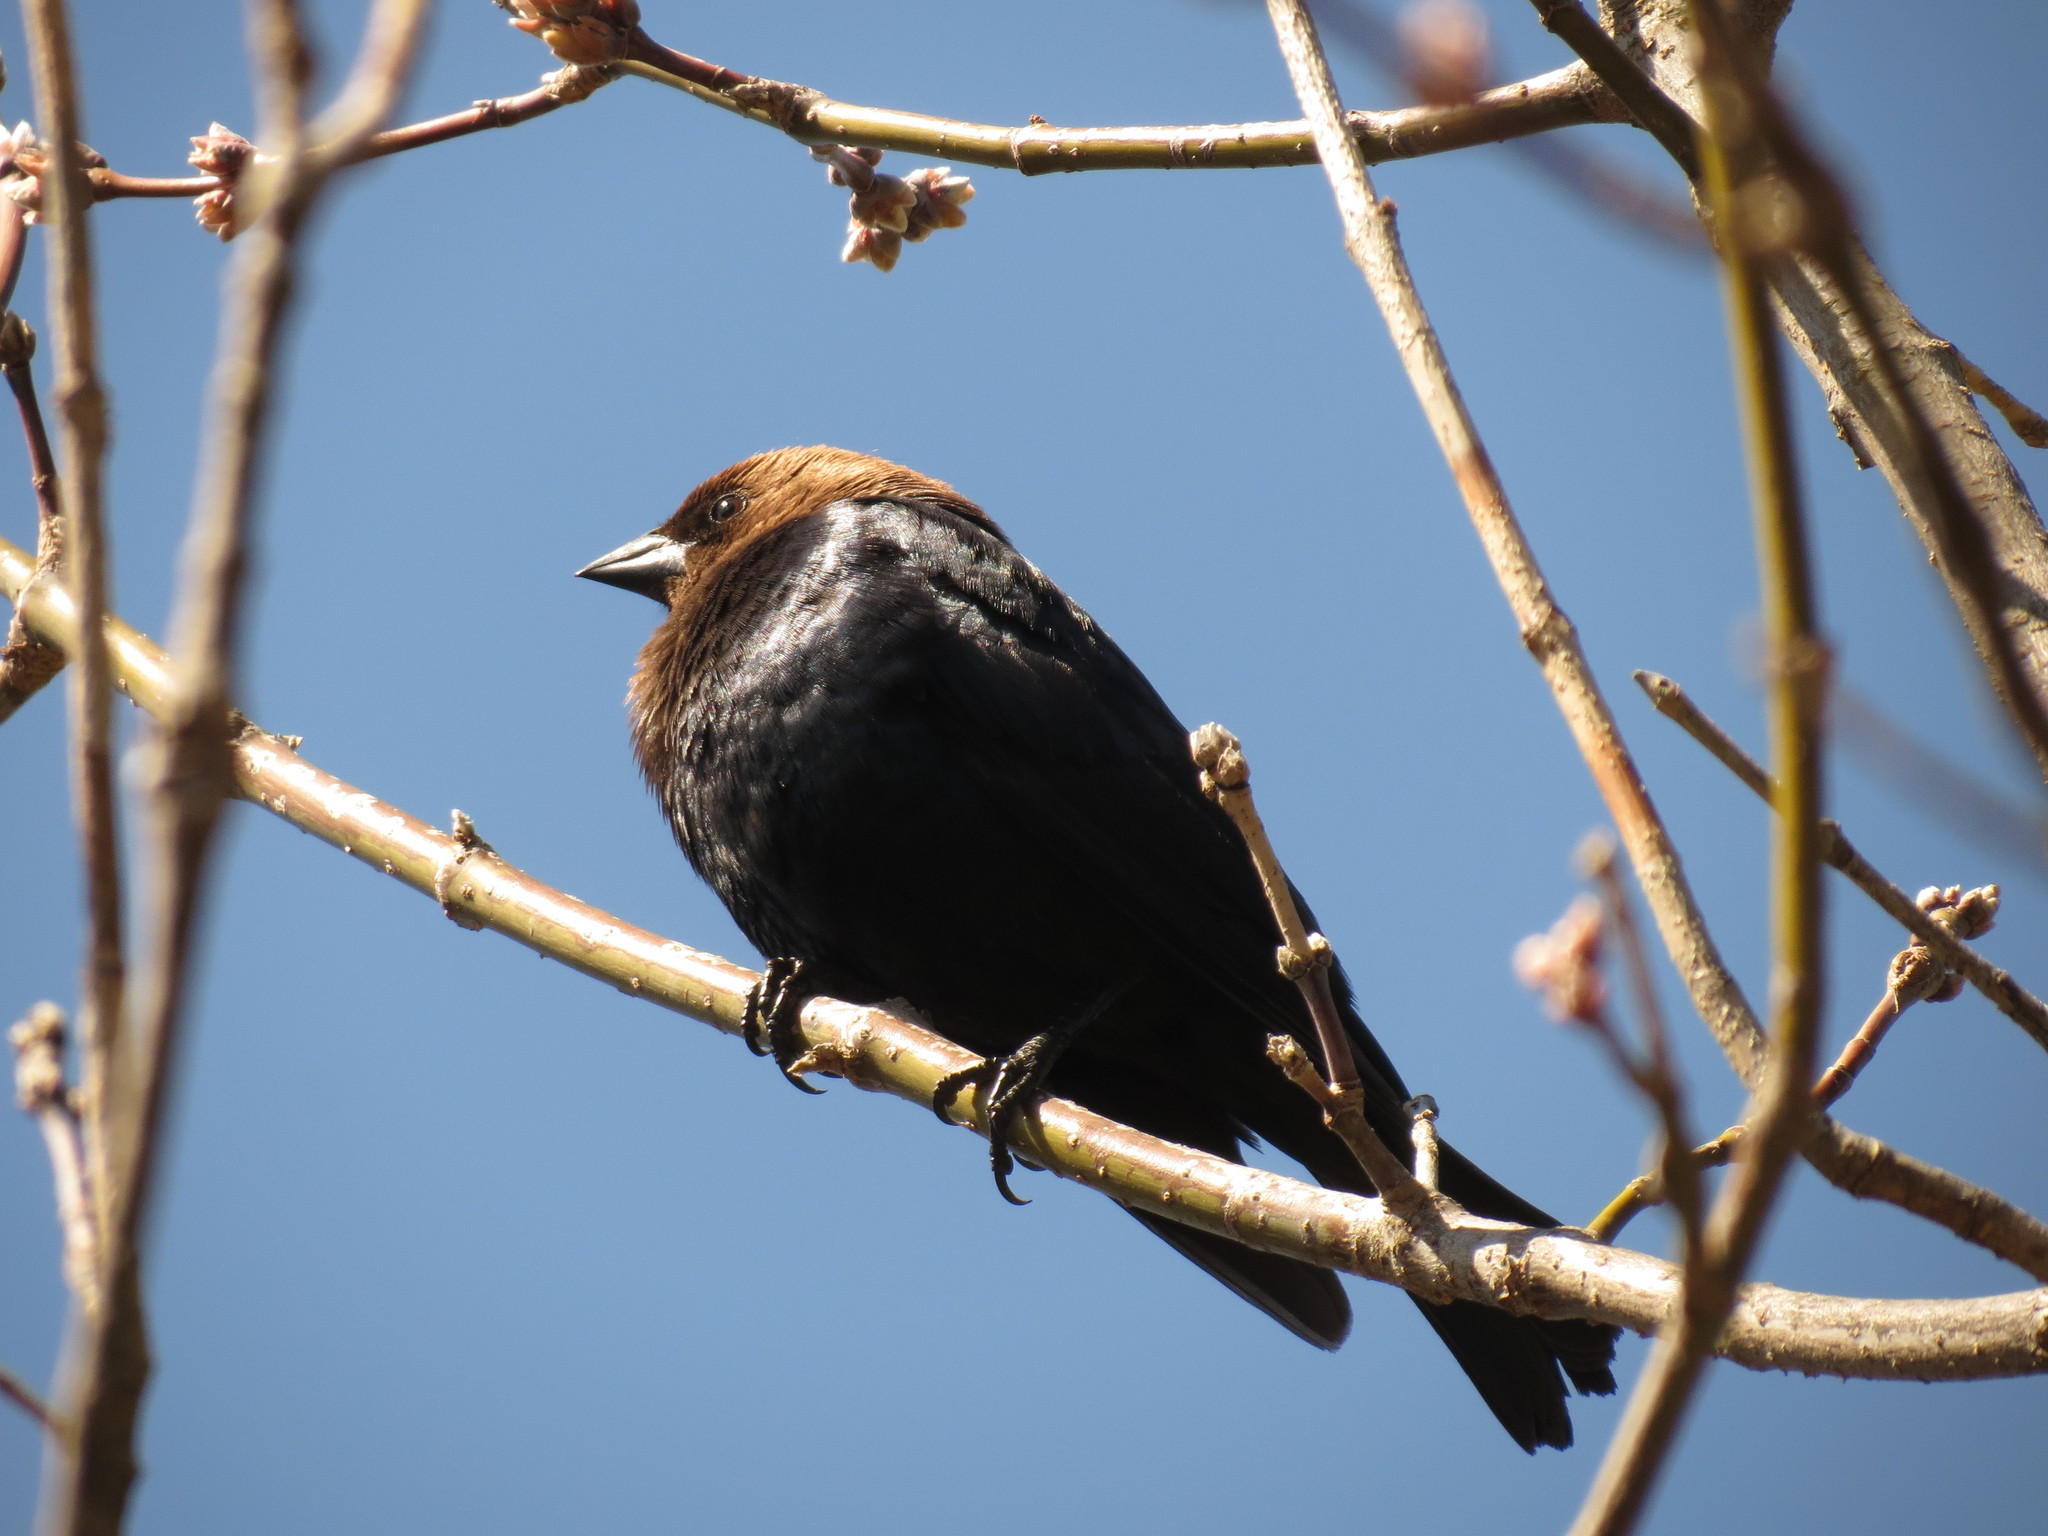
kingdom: Animalia
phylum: Chordata
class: Aves
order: Passeriformes
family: Icteridae
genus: Molothrus
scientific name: Molothrus ater
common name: Brown-headed cowbird
